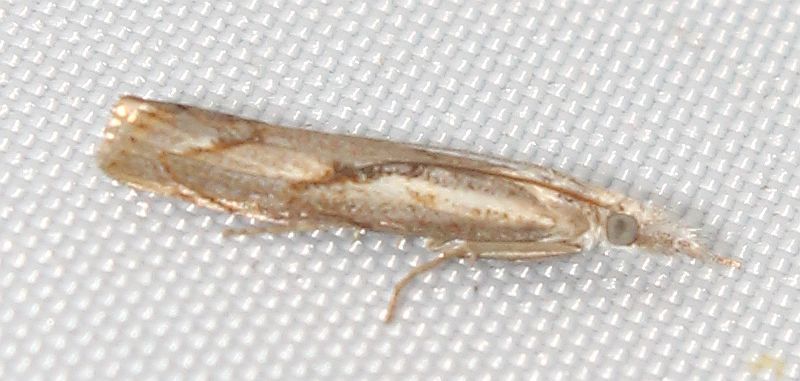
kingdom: Animalia
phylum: Arthropoda
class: Insecta
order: Lepidoptera
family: Crambidae
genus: Agriphila
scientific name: Agriphila geniculea
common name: Elbow-stripe grass-veneer
